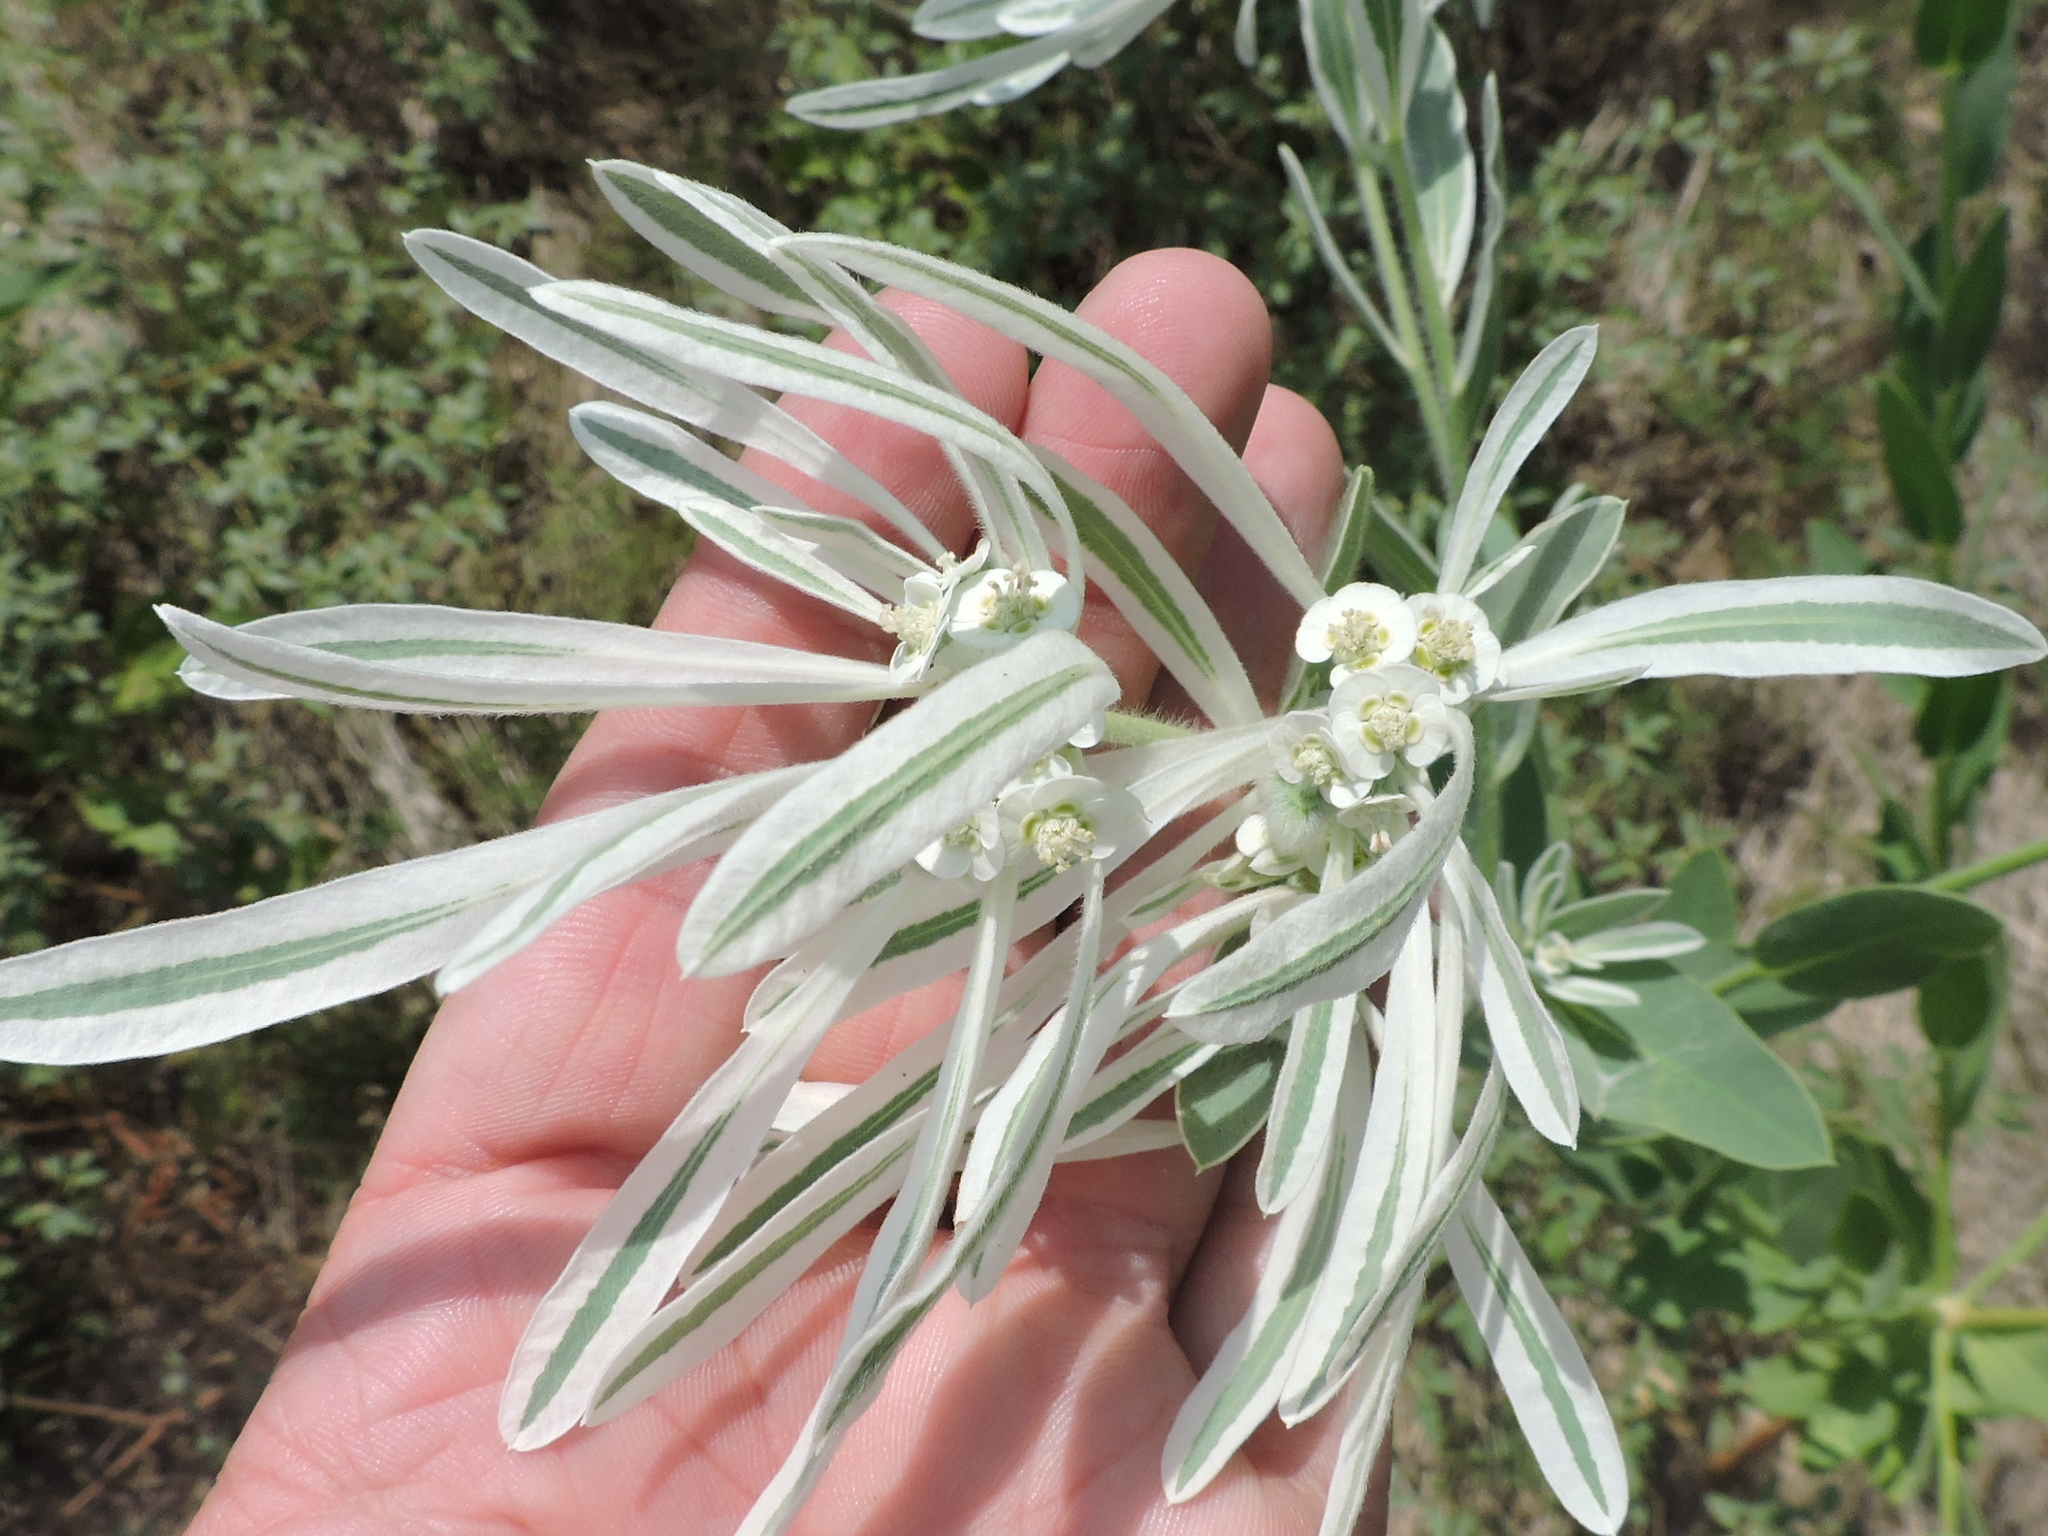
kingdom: Plantae
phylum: Tracheophyta
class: Magnoliopsida
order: Malpighiales
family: Euphorbiaceae
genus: Euphorbia
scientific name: Euphorbia bicolor
